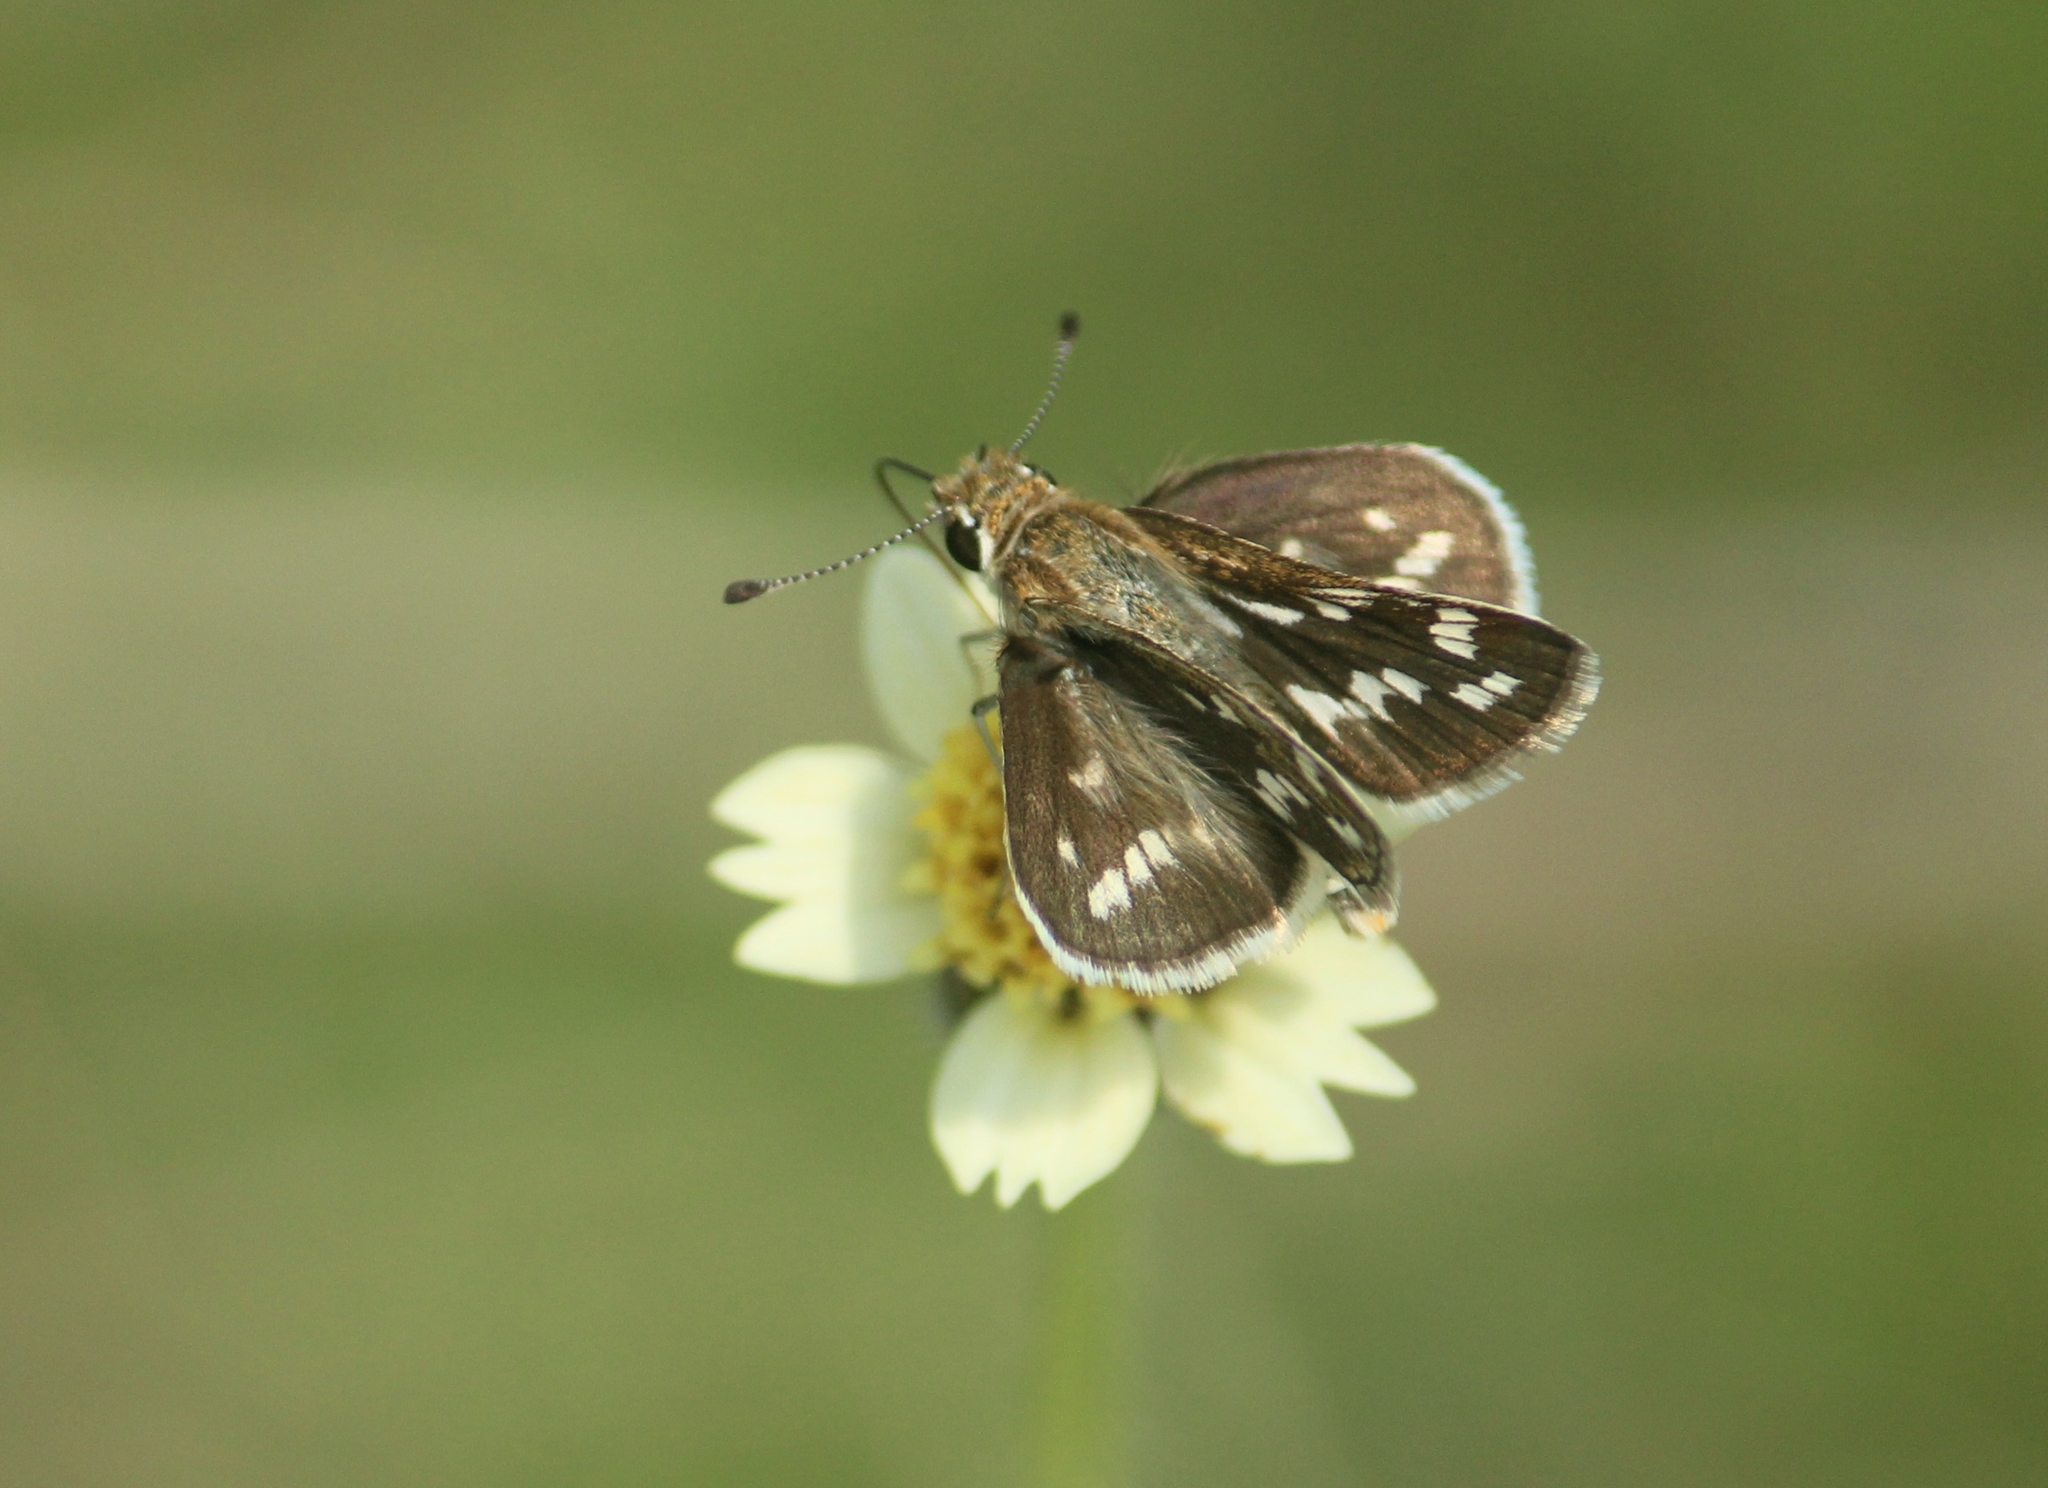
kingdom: Animalia
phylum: Arthropoda
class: Insecta
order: Lepidoptera
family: Hesperiidae
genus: Taractrocera
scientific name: Taractrocera maevius
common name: Common grass-dart
